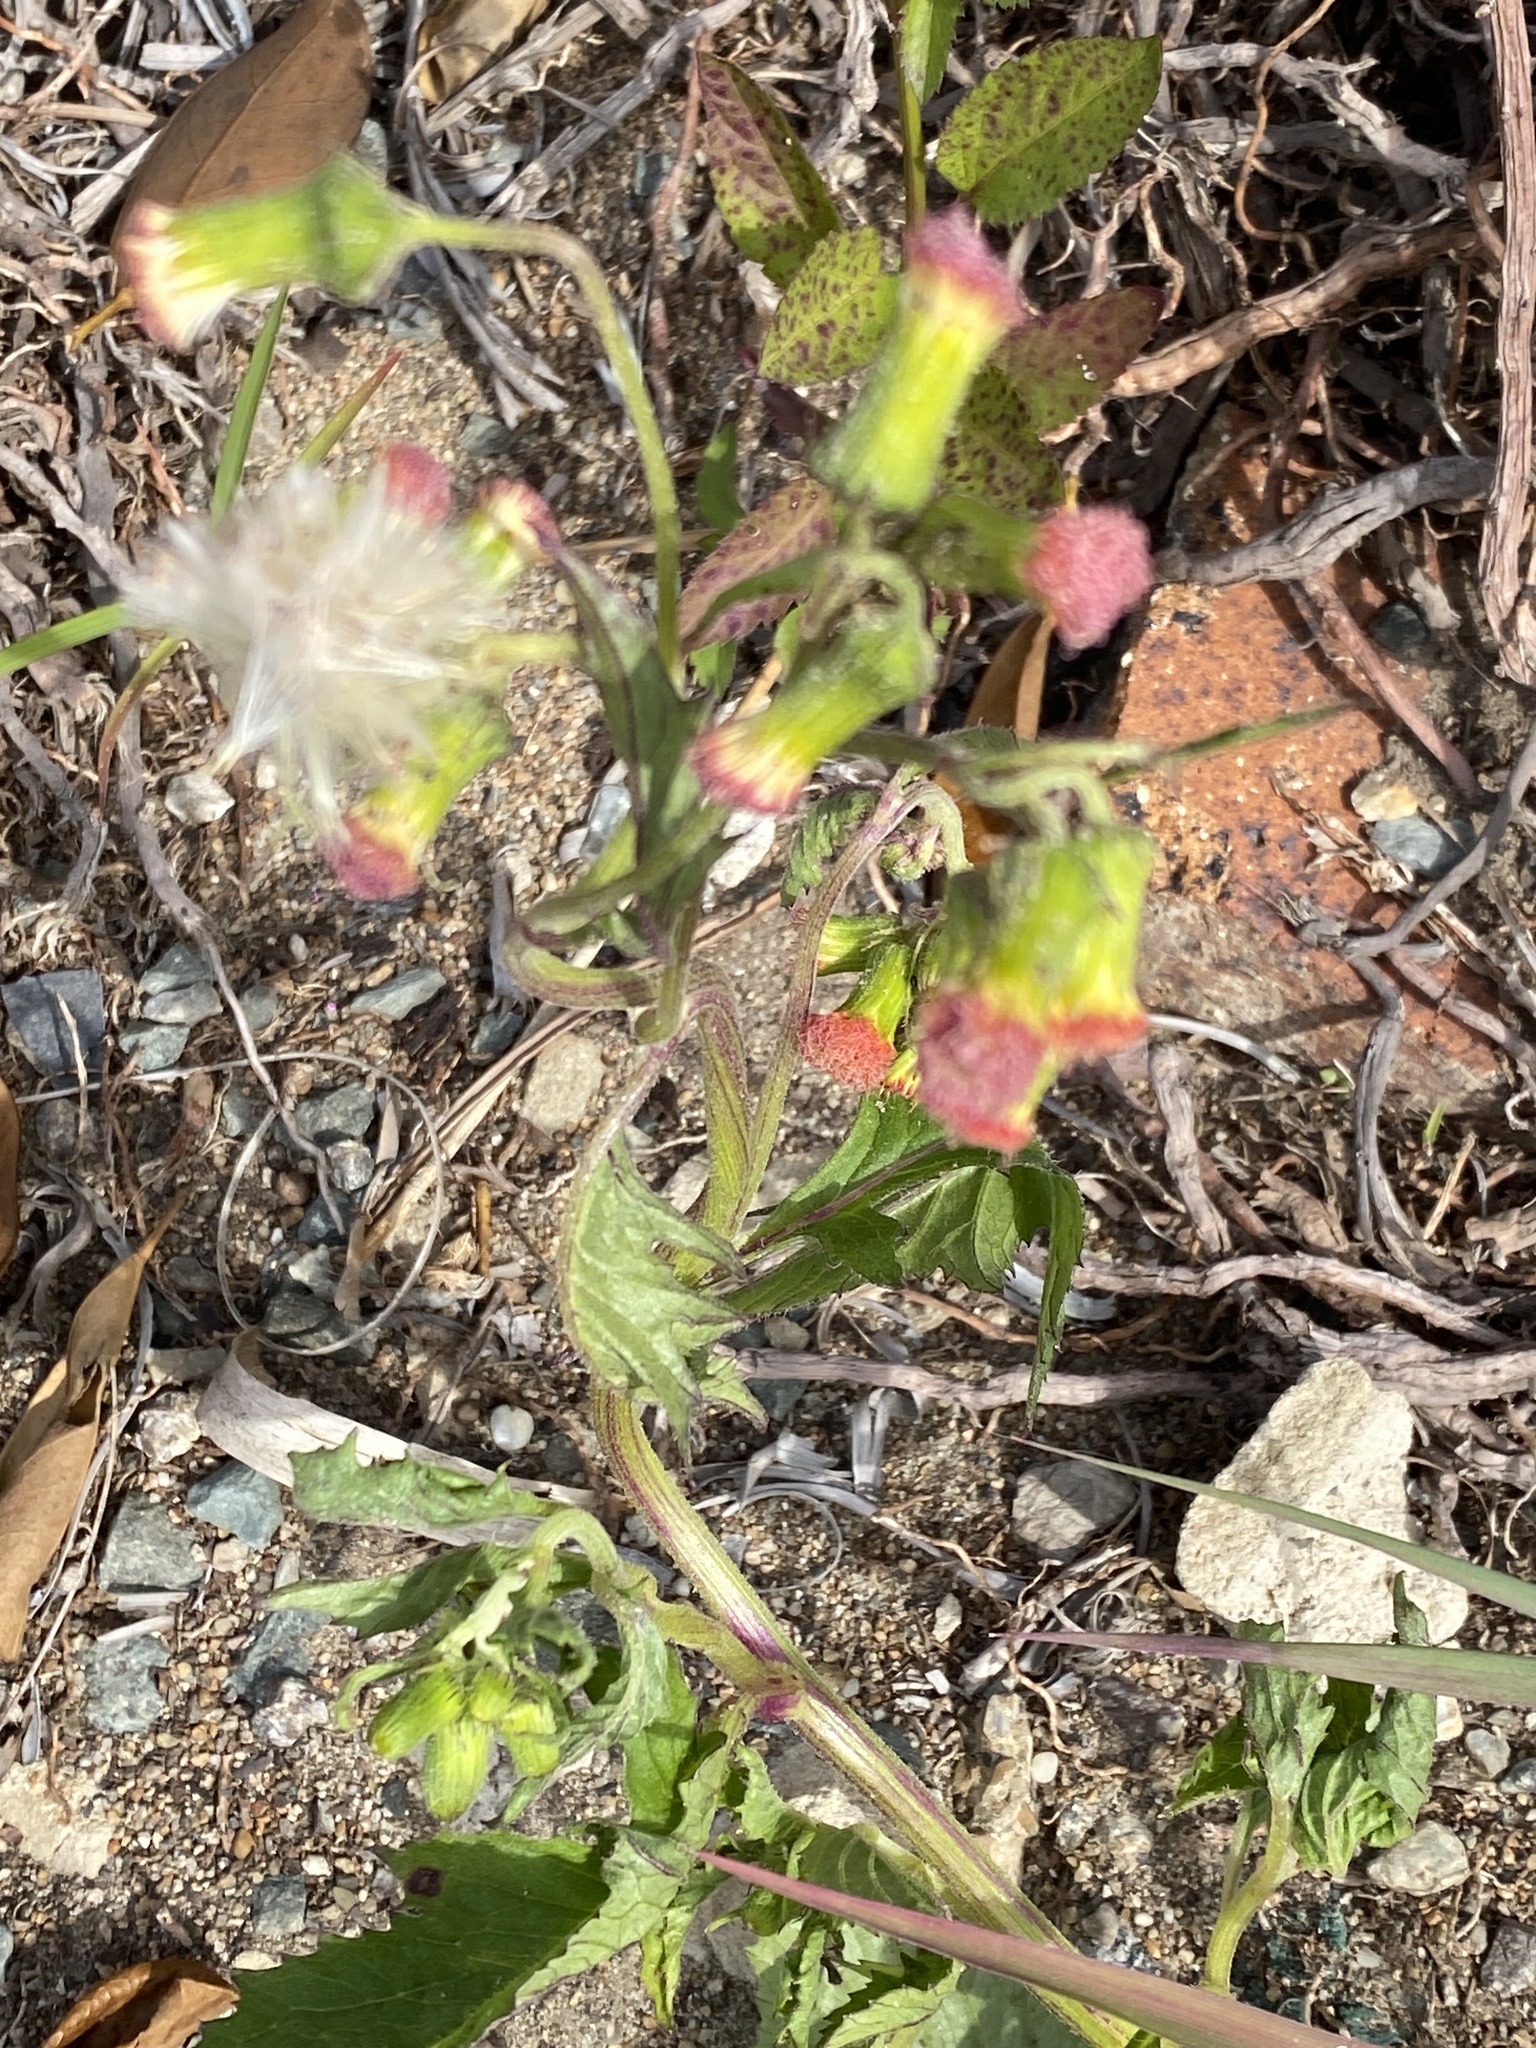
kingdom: Plantae
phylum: Tracheophyta
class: Magnoliopsida
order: Asterales
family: Asteraceae
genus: Crassocephalum
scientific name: Crassocephalum crepidioides
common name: Redflower ragleaf
